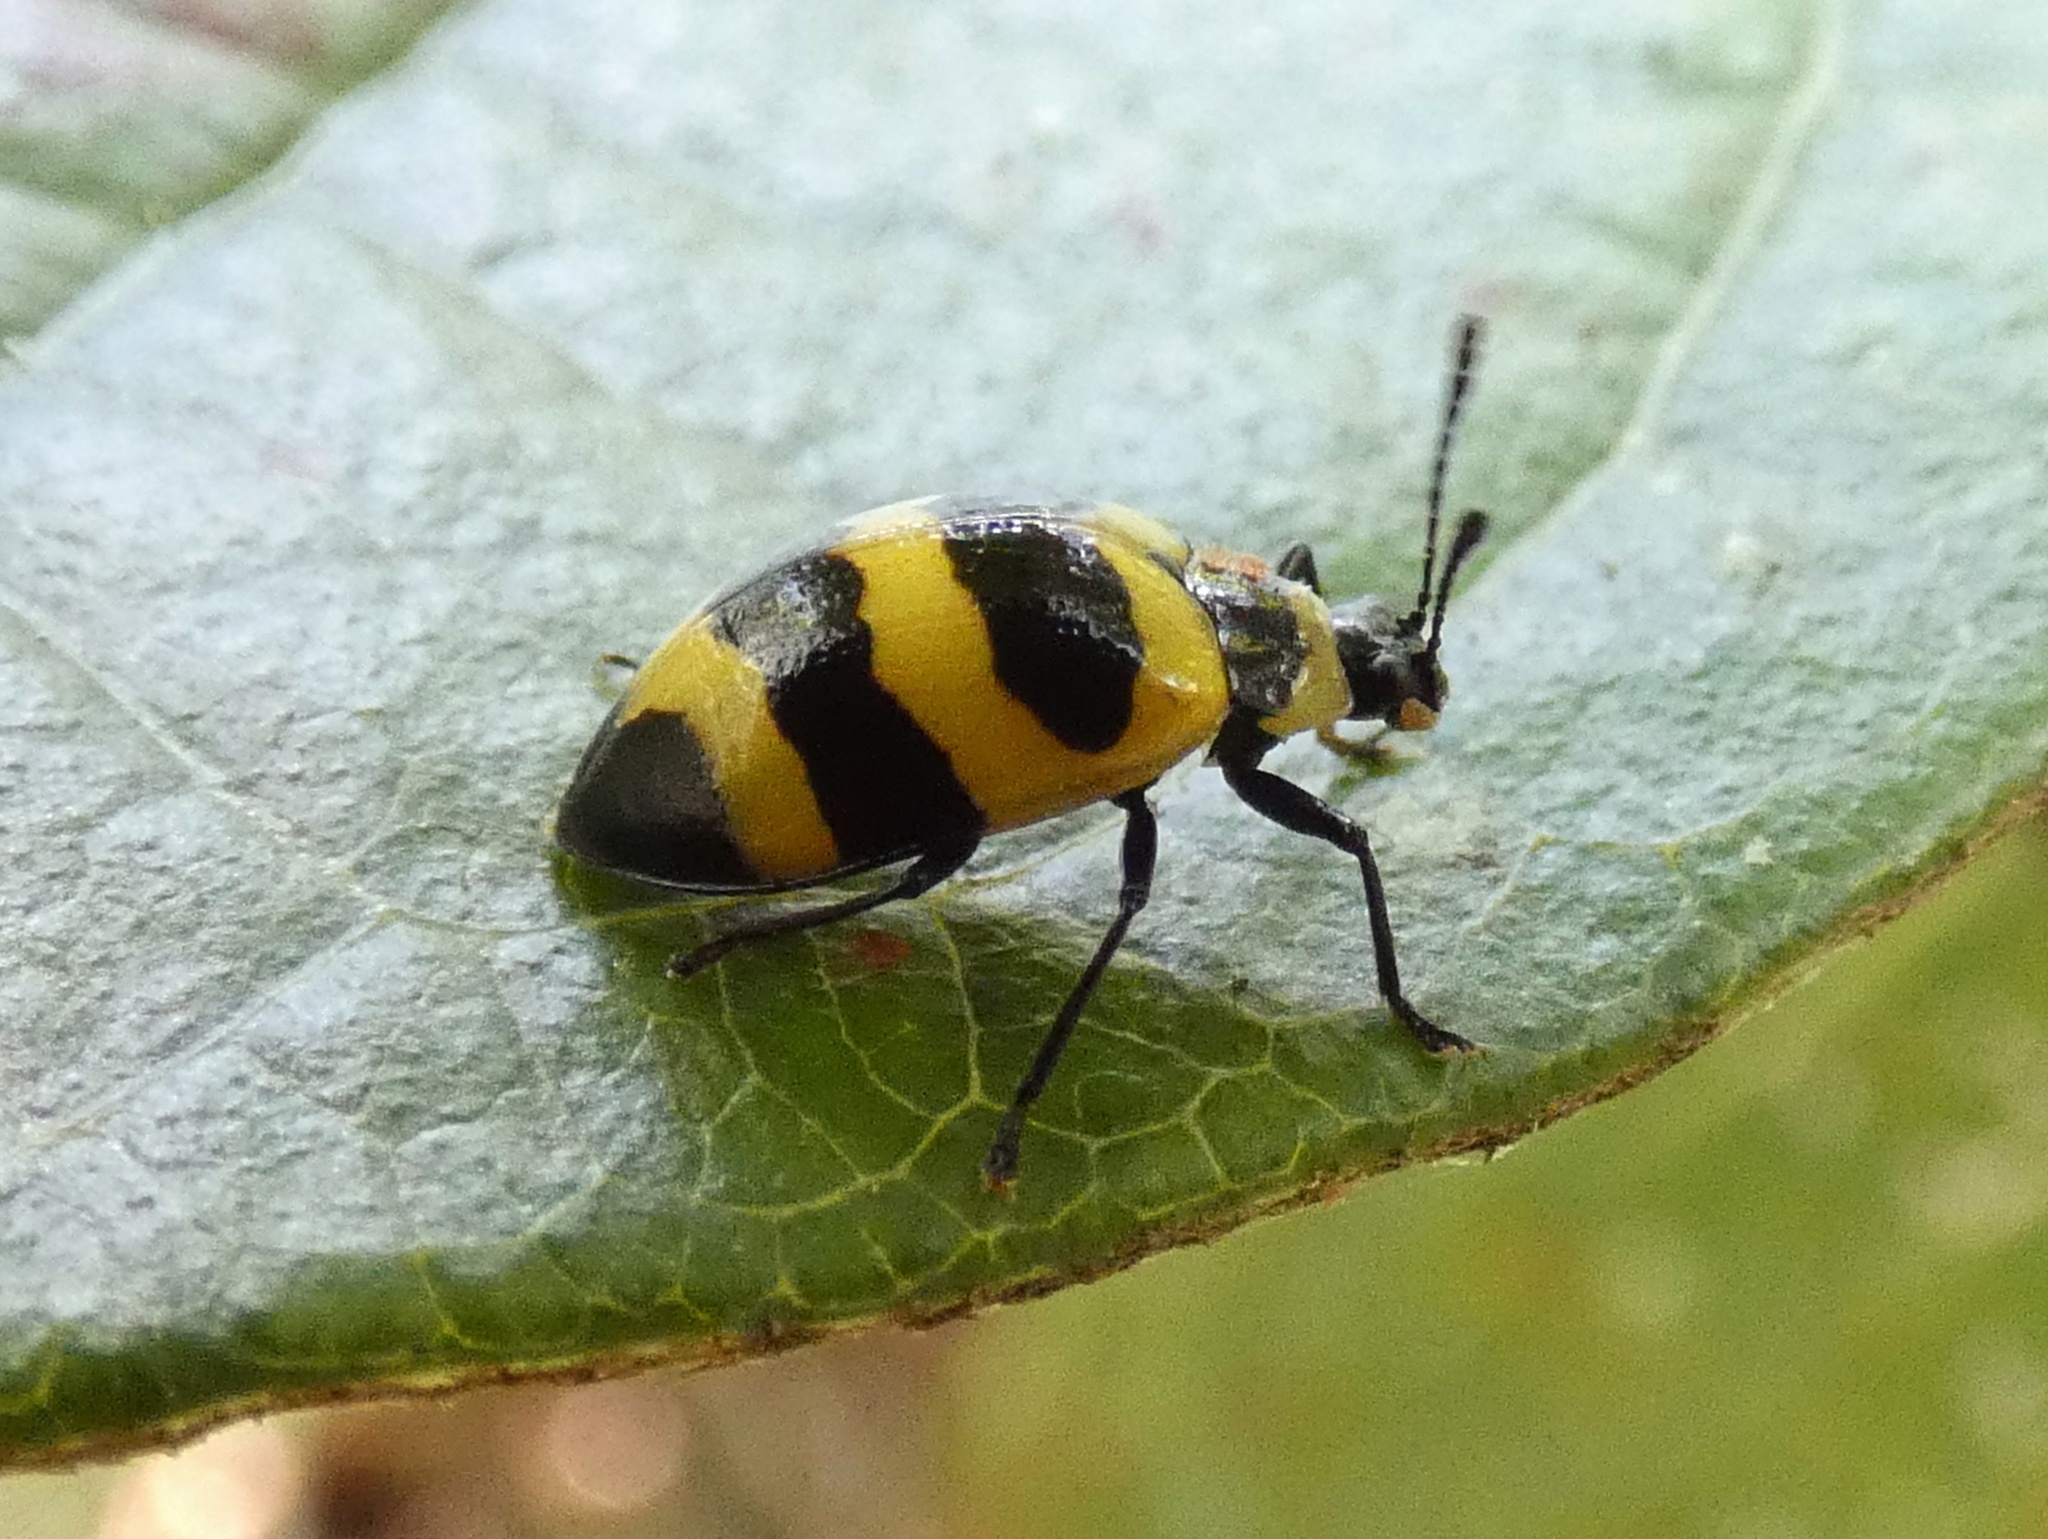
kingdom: Animalia
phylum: Arthropoda
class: Insecta
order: Coleoptera
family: Erotylidae
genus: Oligocorynus
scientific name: Oligocorynus
